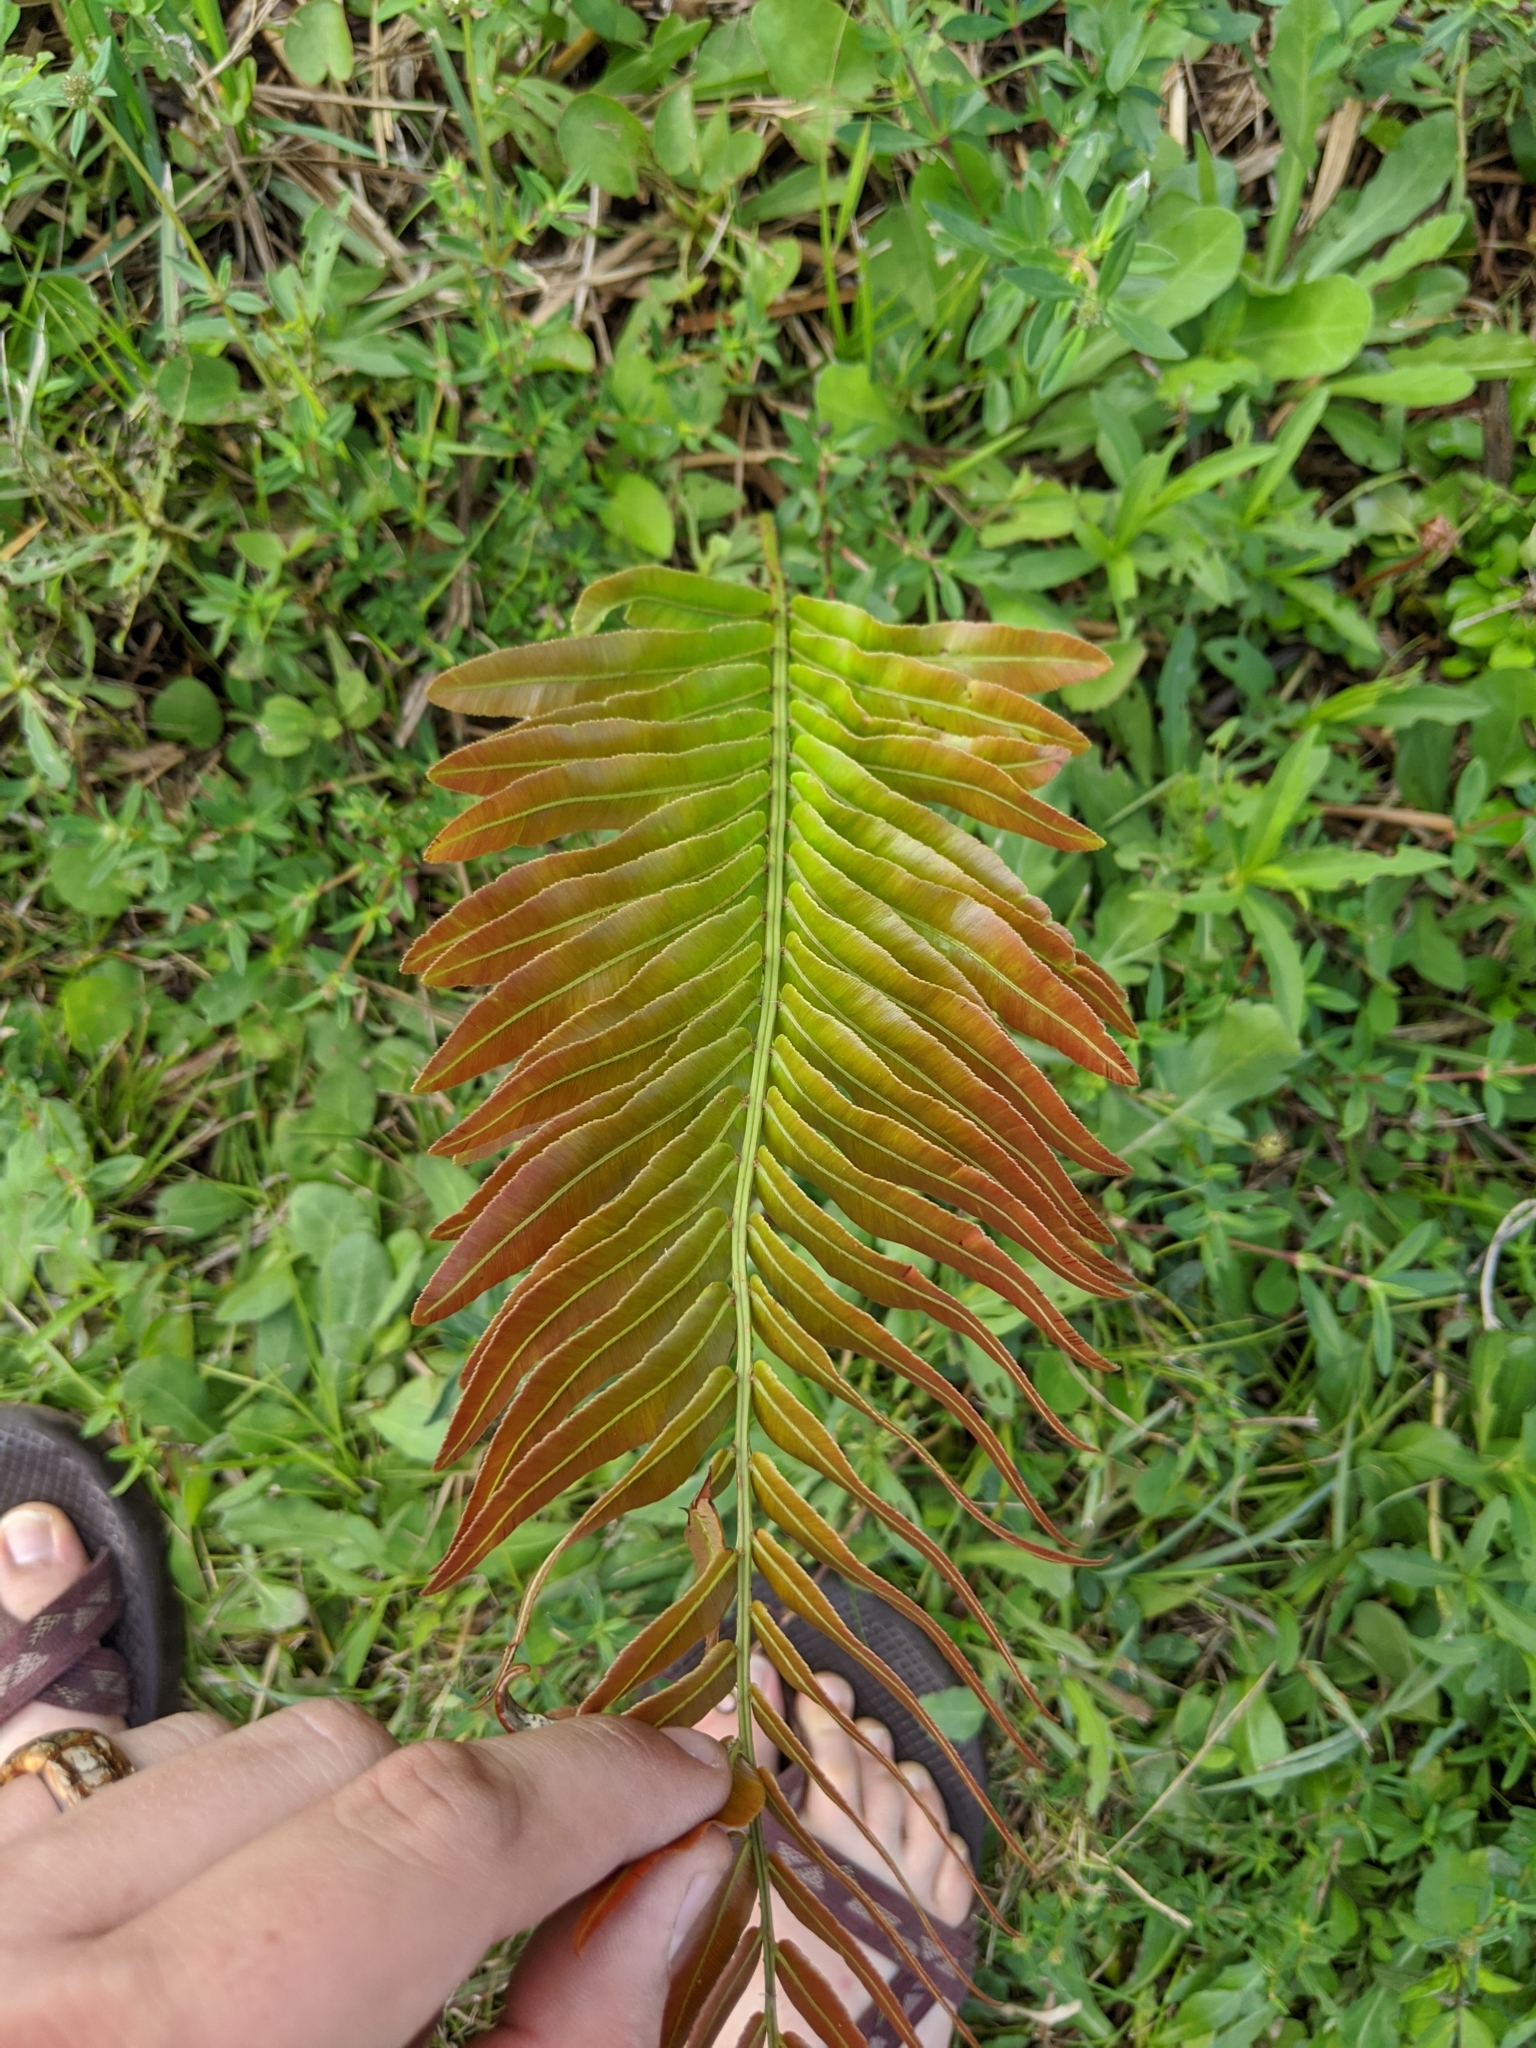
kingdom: Plantae
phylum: Tracheophyta
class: Polypodiopsida
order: Polypodiales
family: Blechnaceae
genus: Telmatoblechnum
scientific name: Telmatoblechnum serrulatum
